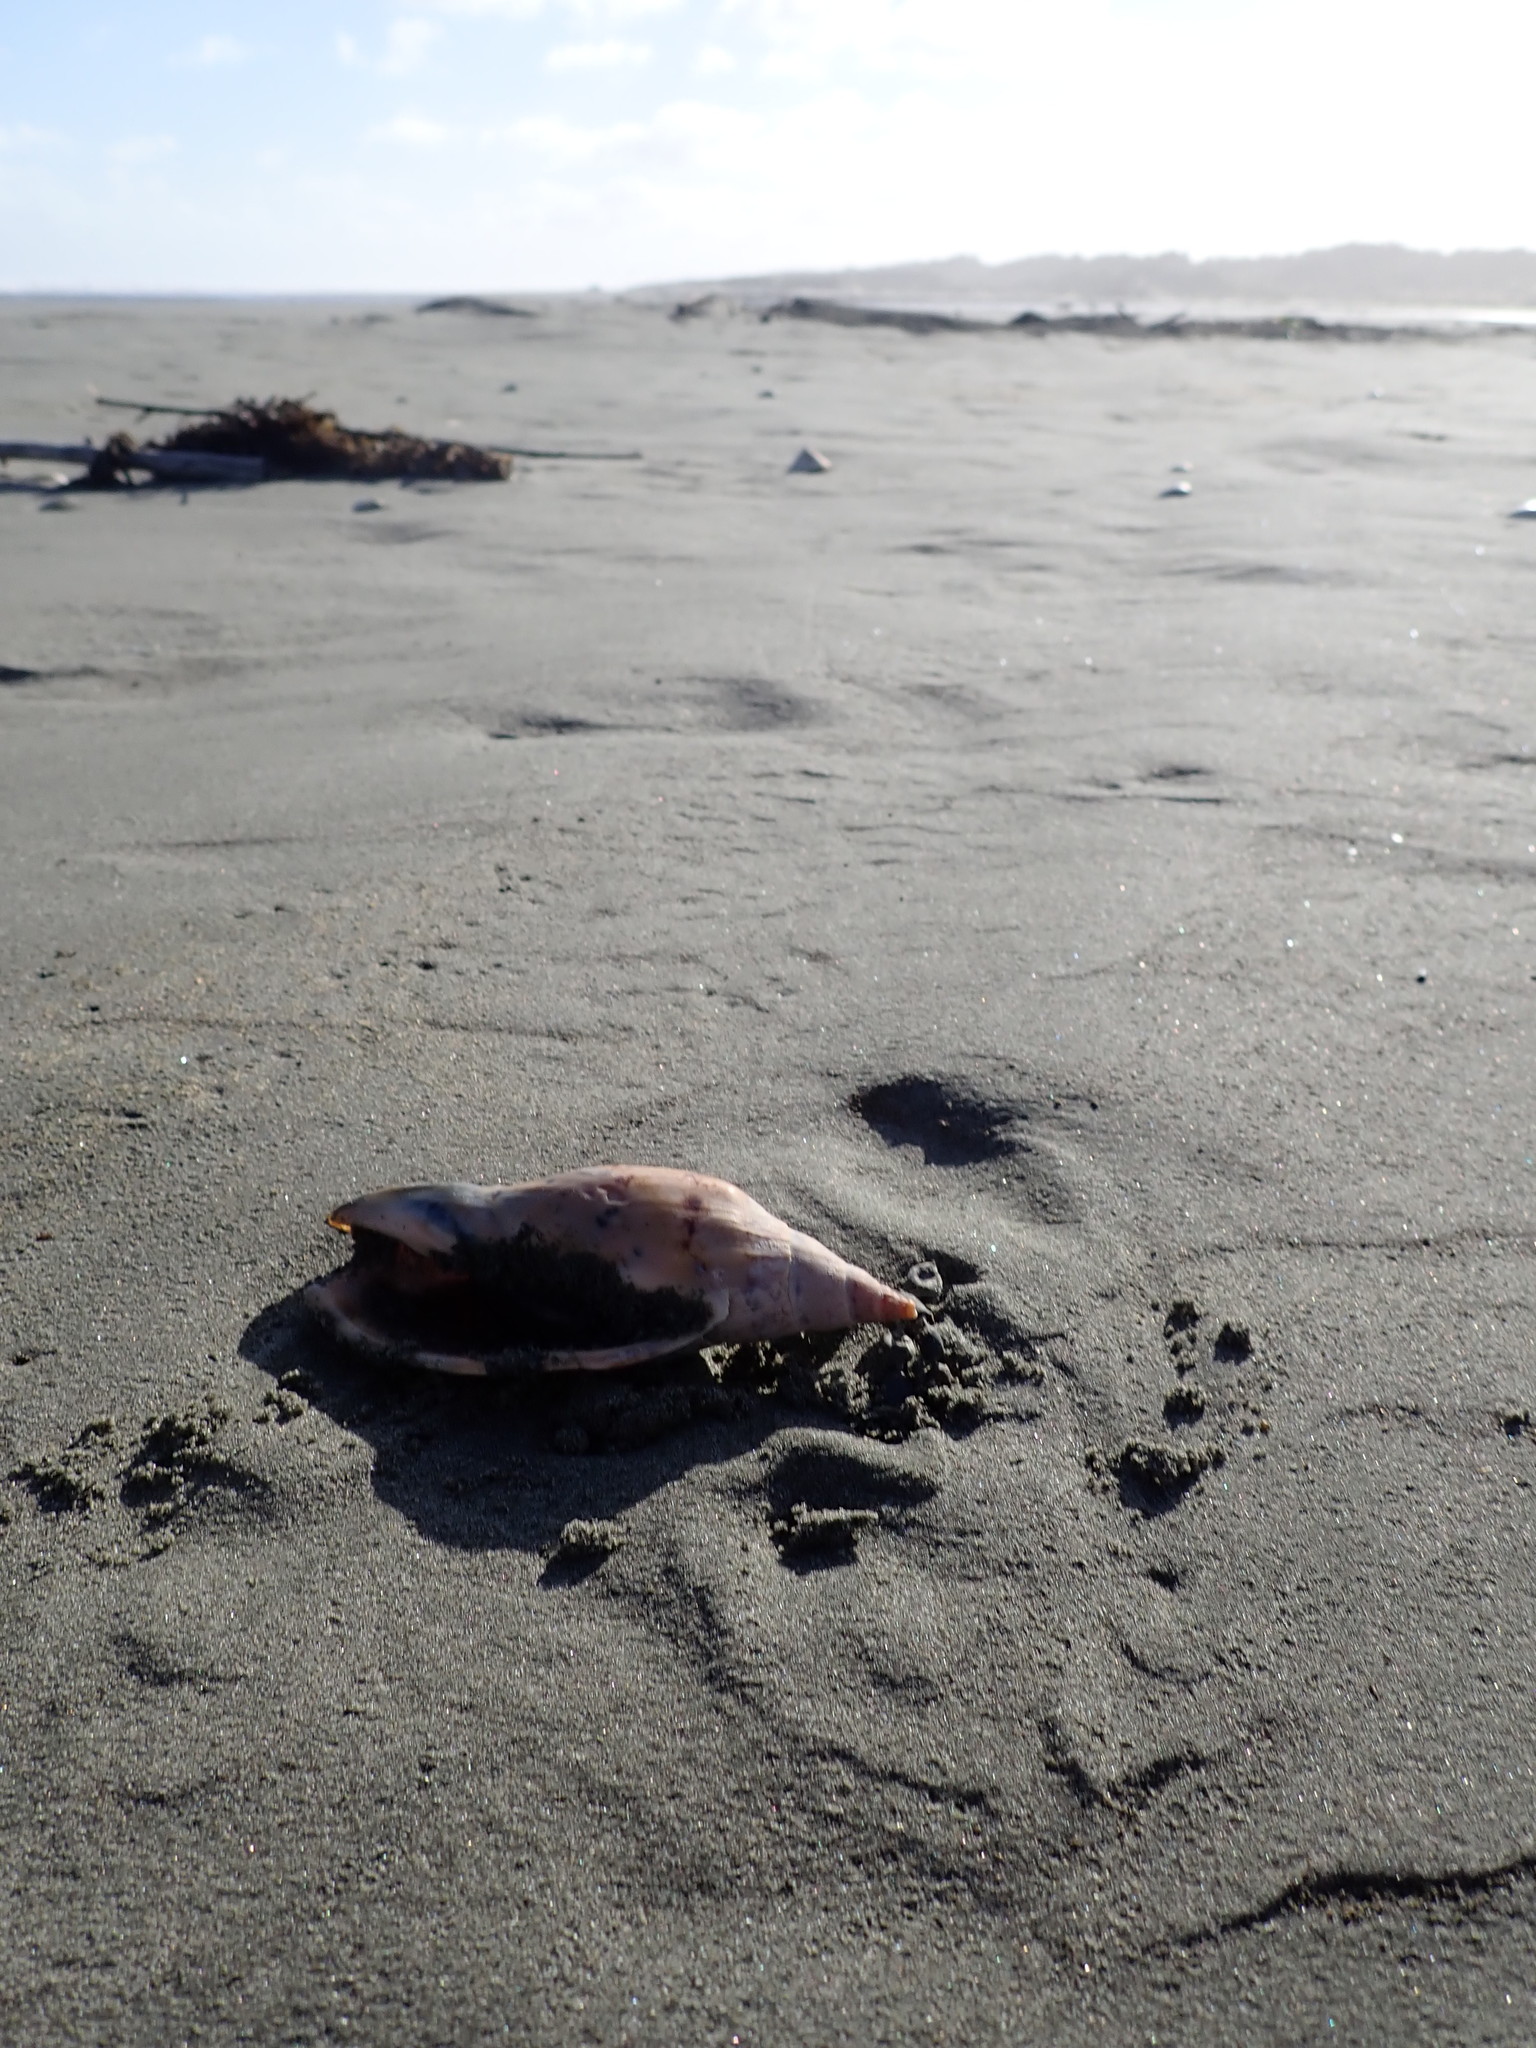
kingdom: Animalia
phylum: Mollusca
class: Gastropoda
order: Neogastropoda
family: Volutidae
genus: Alcithoe
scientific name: Alcithoe arabica
